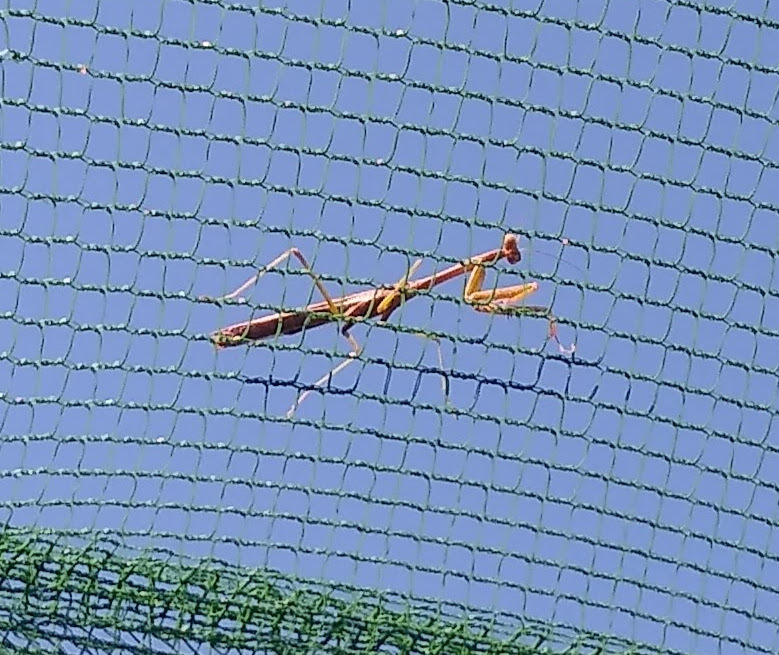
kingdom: Animalia
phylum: Arthropoda
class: Insecta
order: Mantodea
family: Mantidae
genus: Stagmomantis
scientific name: Stagmomantis carolina
